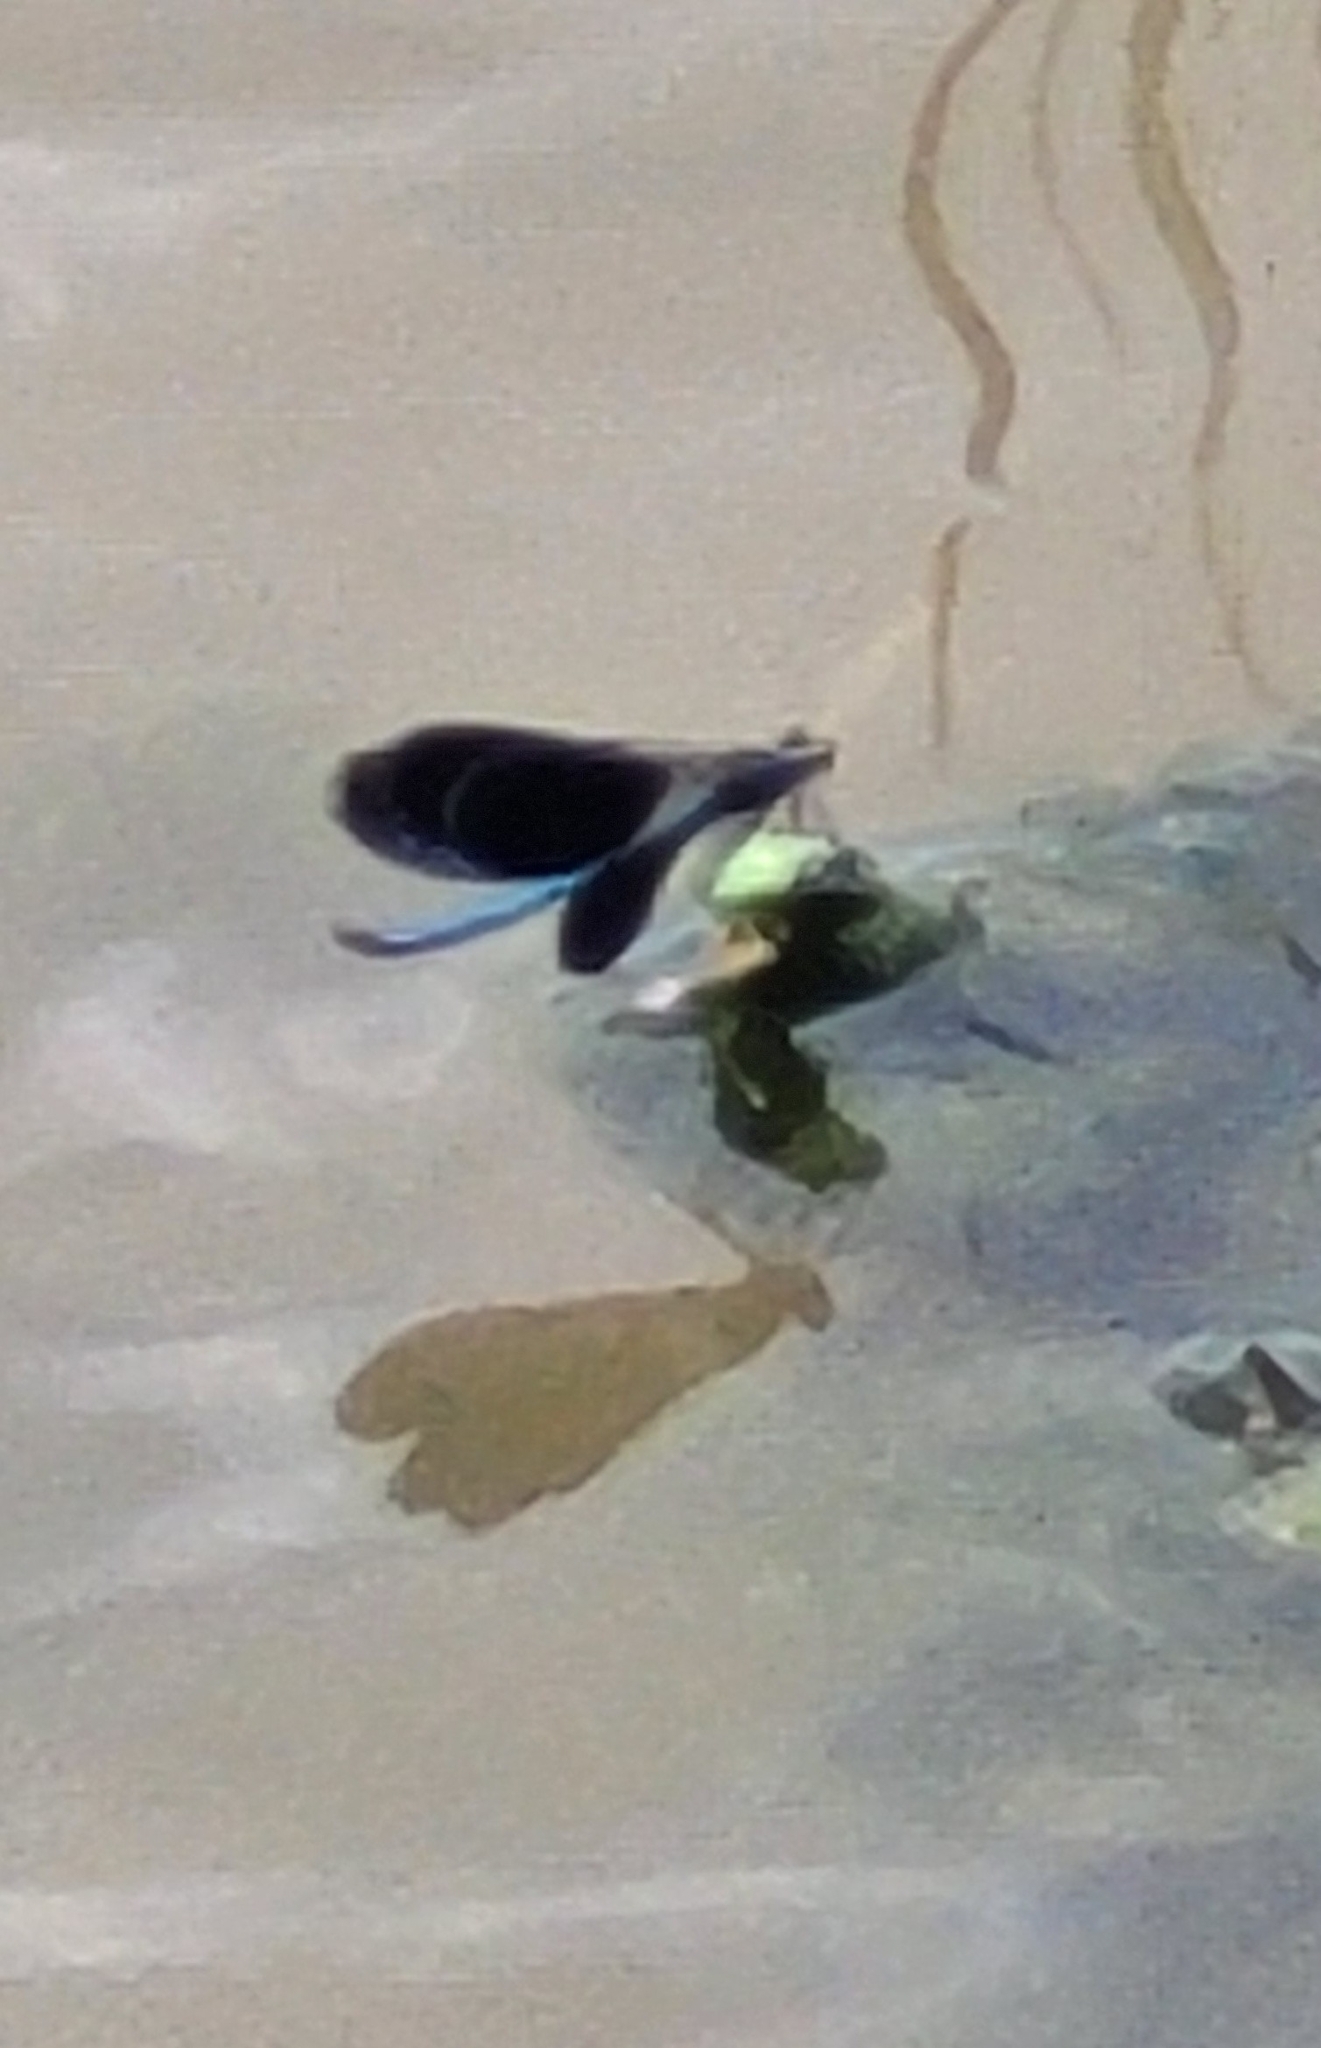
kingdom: Animalia
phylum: Arthropoda
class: Insecta
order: Odonata
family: Calopterygidae
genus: Calopteryx
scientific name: Calopteryx splendens
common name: Banded demoiselle
